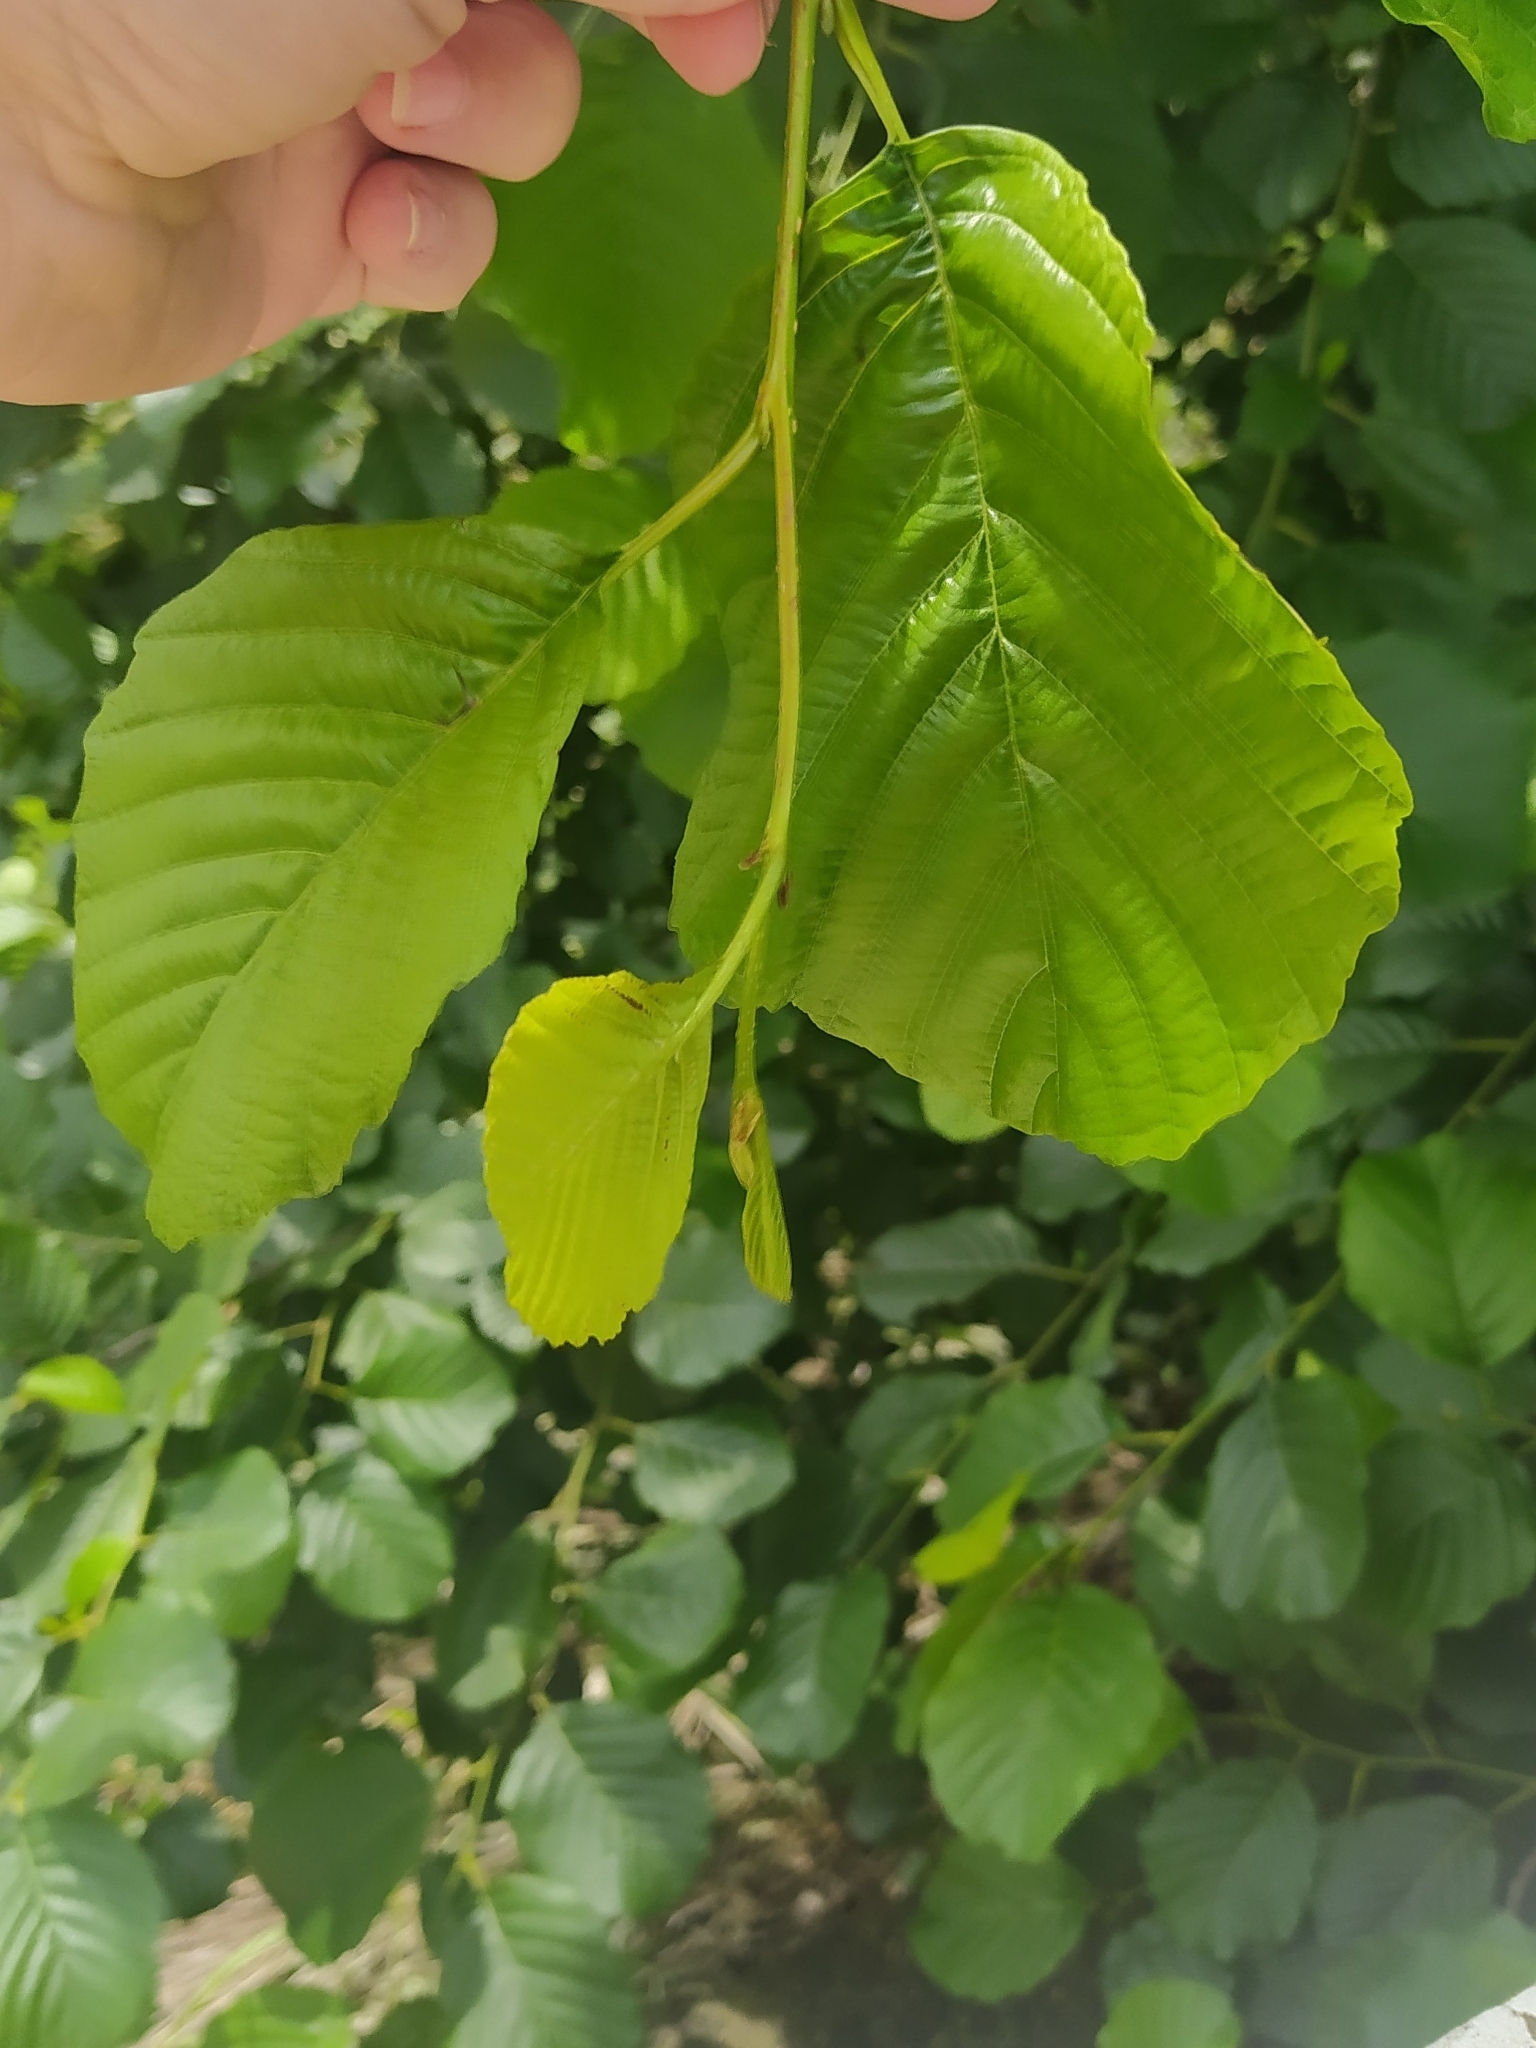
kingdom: Plantae
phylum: Tracheophyta
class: Magnoliopsida
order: Fagales
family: Betulaceae
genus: Alnus
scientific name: Alnus glutinosa
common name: Black alder
